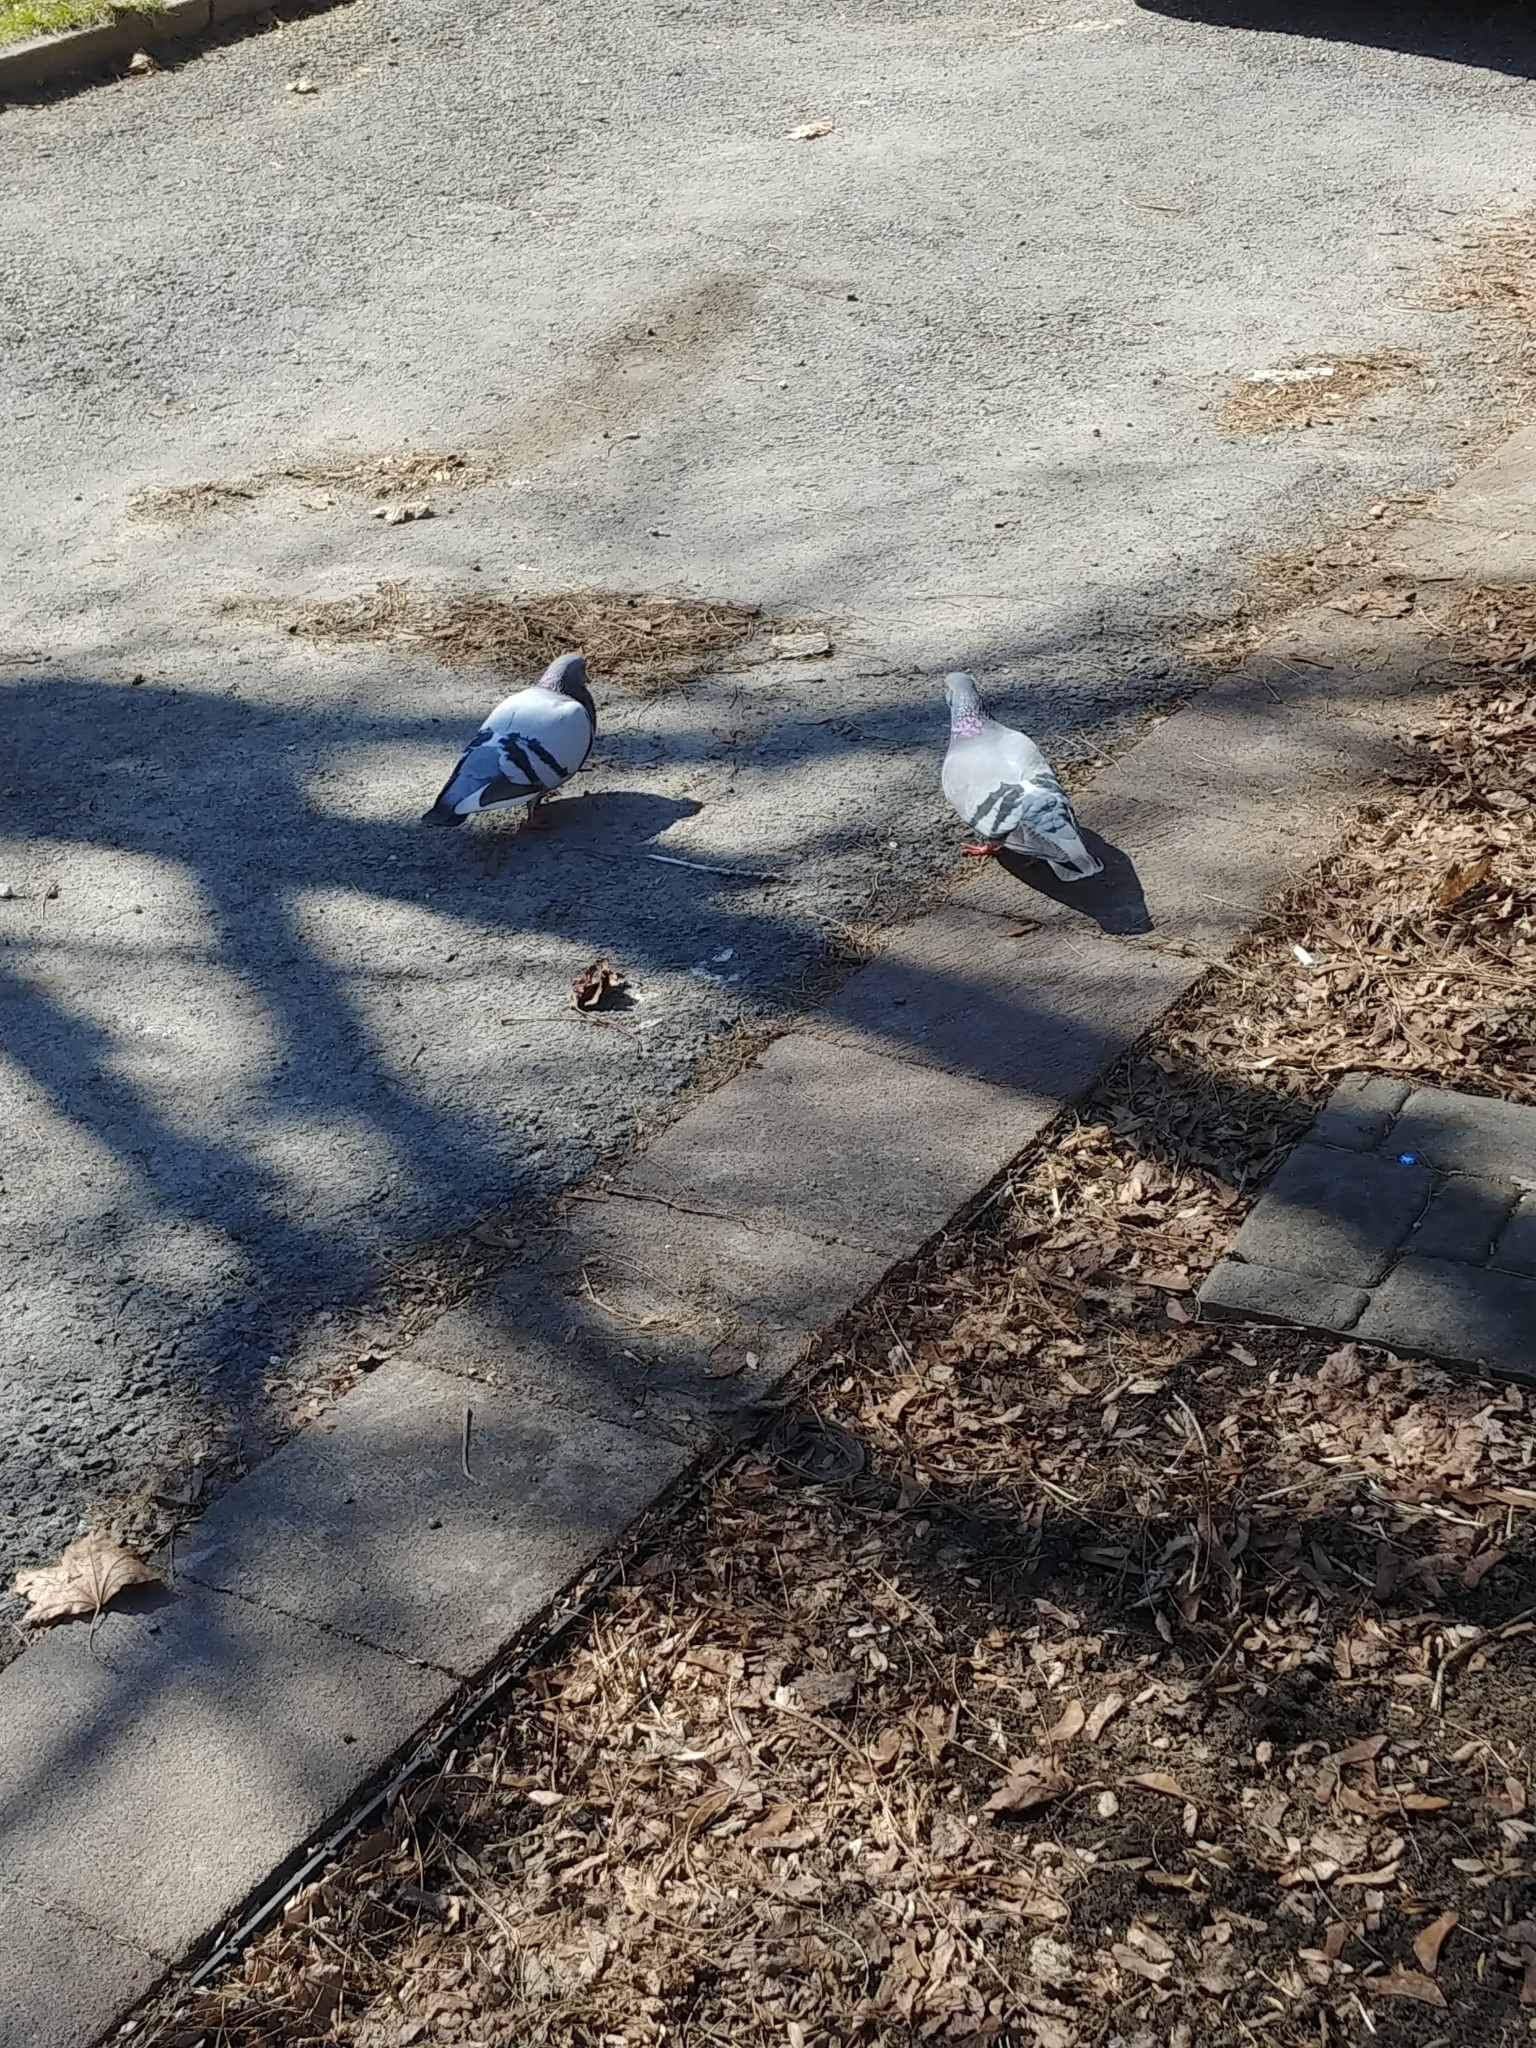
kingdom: Animalia
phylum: Chordata
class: Aves
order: Columbiformes
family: Columbidae
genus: Columba
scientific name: Columba livia
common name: Rock pigeon
